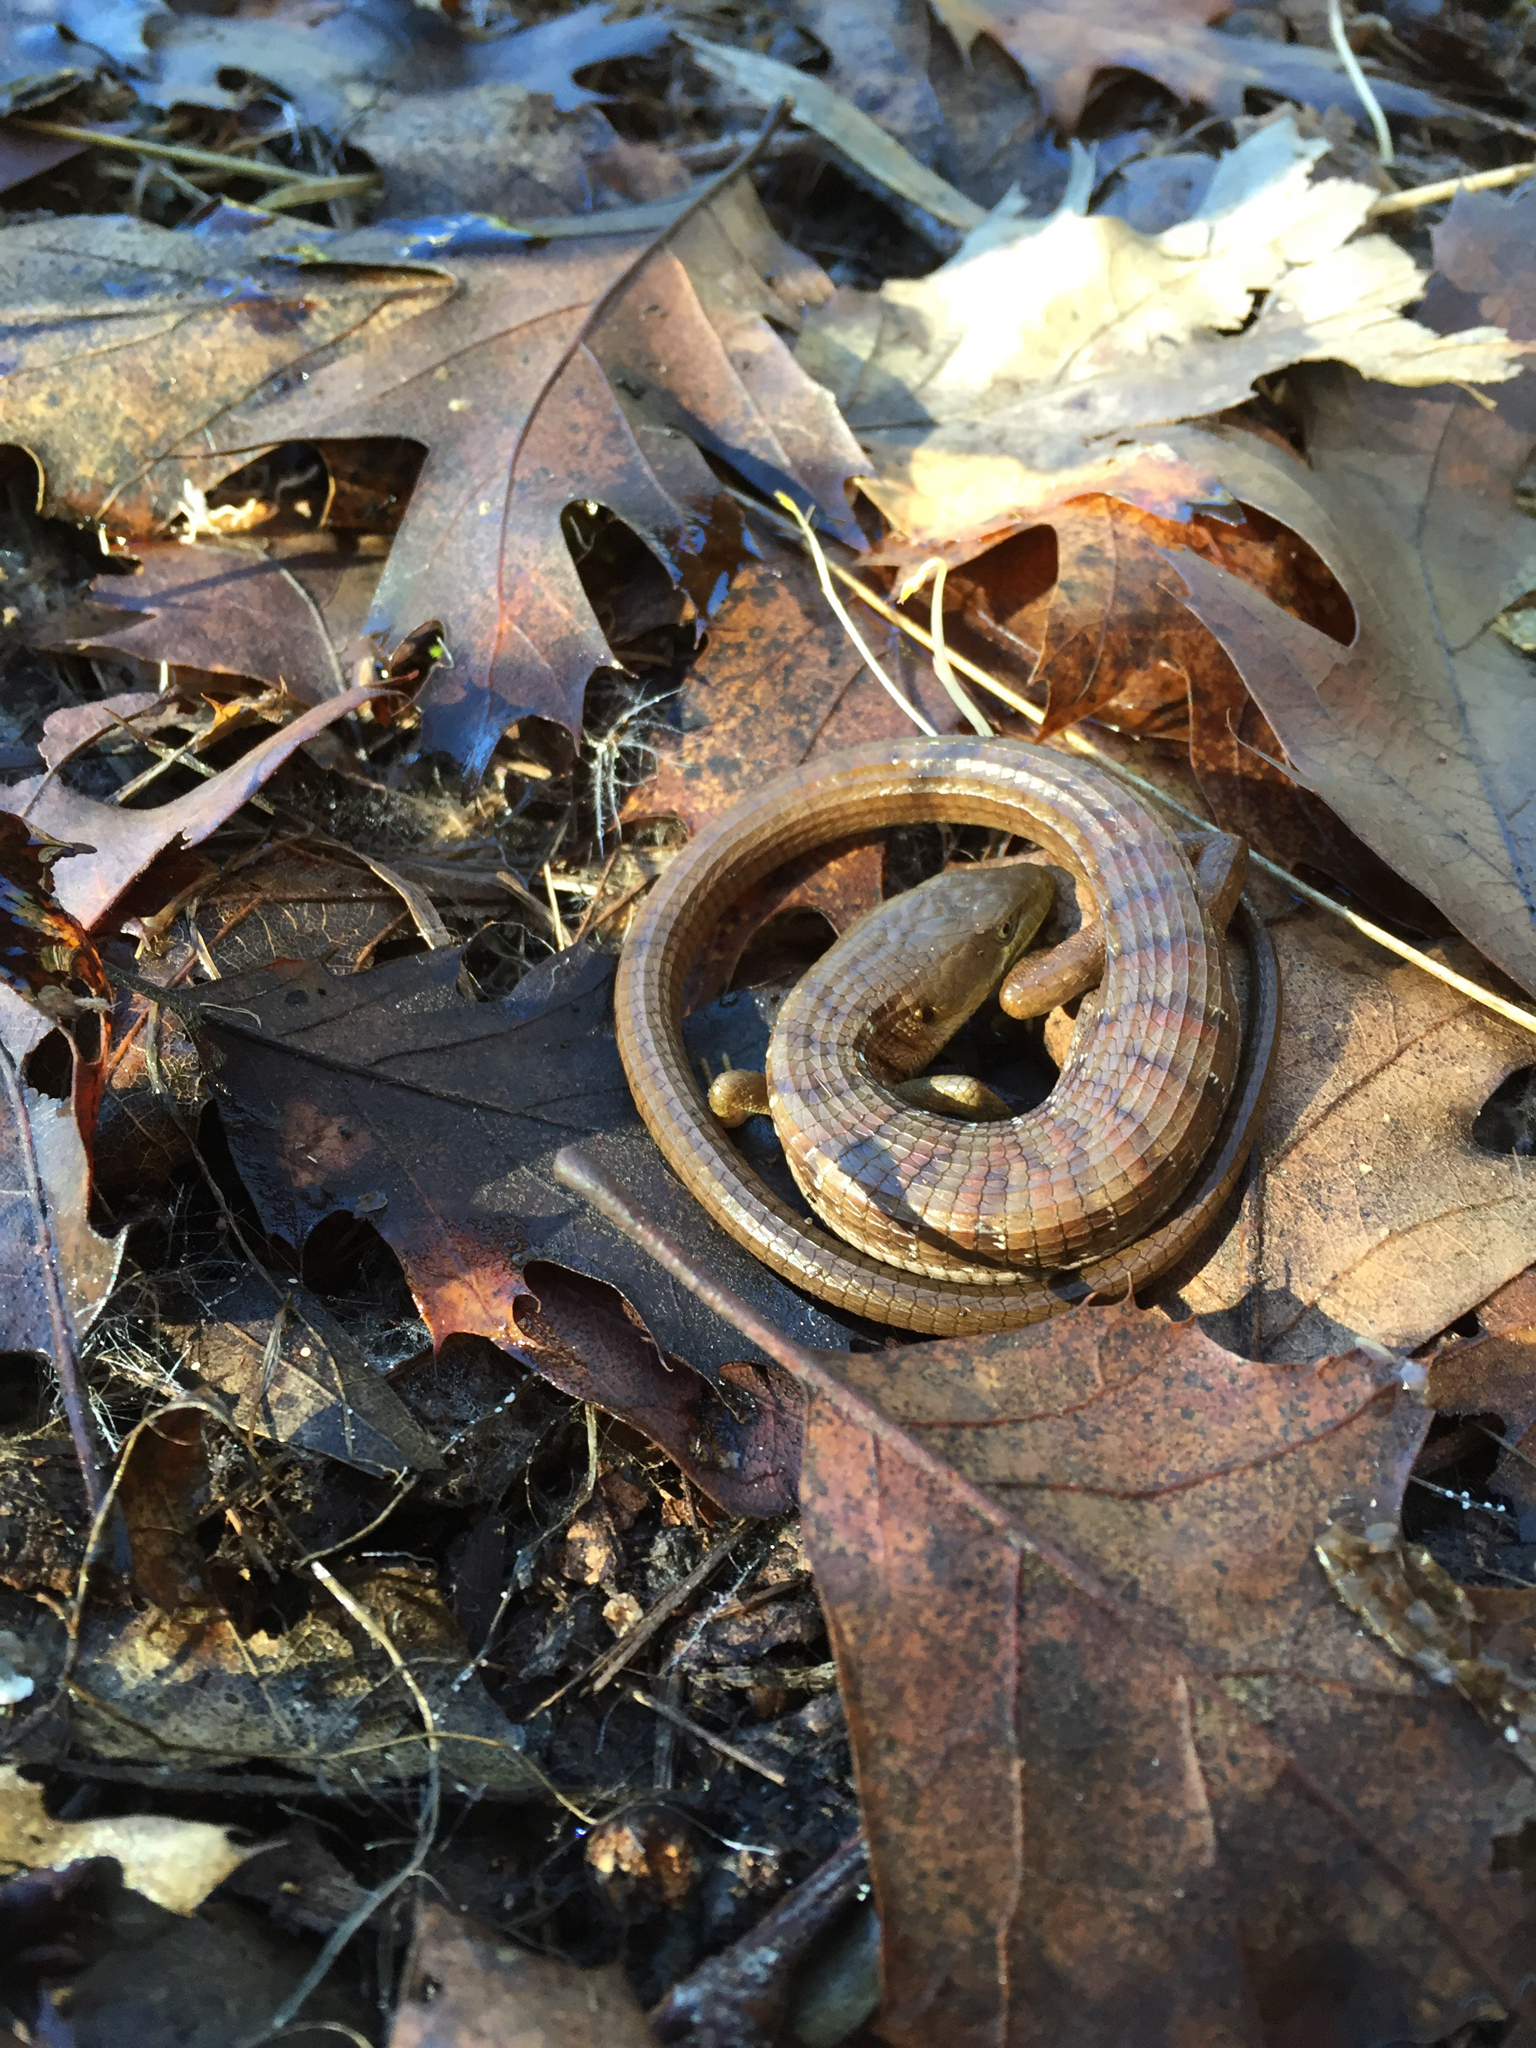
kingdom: Animalia
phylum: Chordata
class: Squamata
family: Anguidae
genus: Elgaria
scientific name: Elgaria multicarinata
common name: Southern alligator lizard
